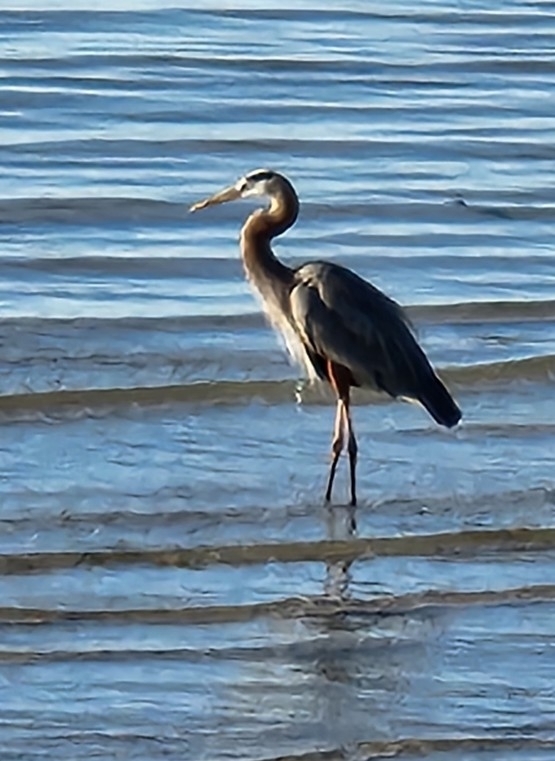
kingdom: Animalia
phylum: Chordata
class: Aves
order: Pelecaniformes
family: Ardeidae
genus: Ardea
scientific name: Ardea herodias
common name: Great blue heron
